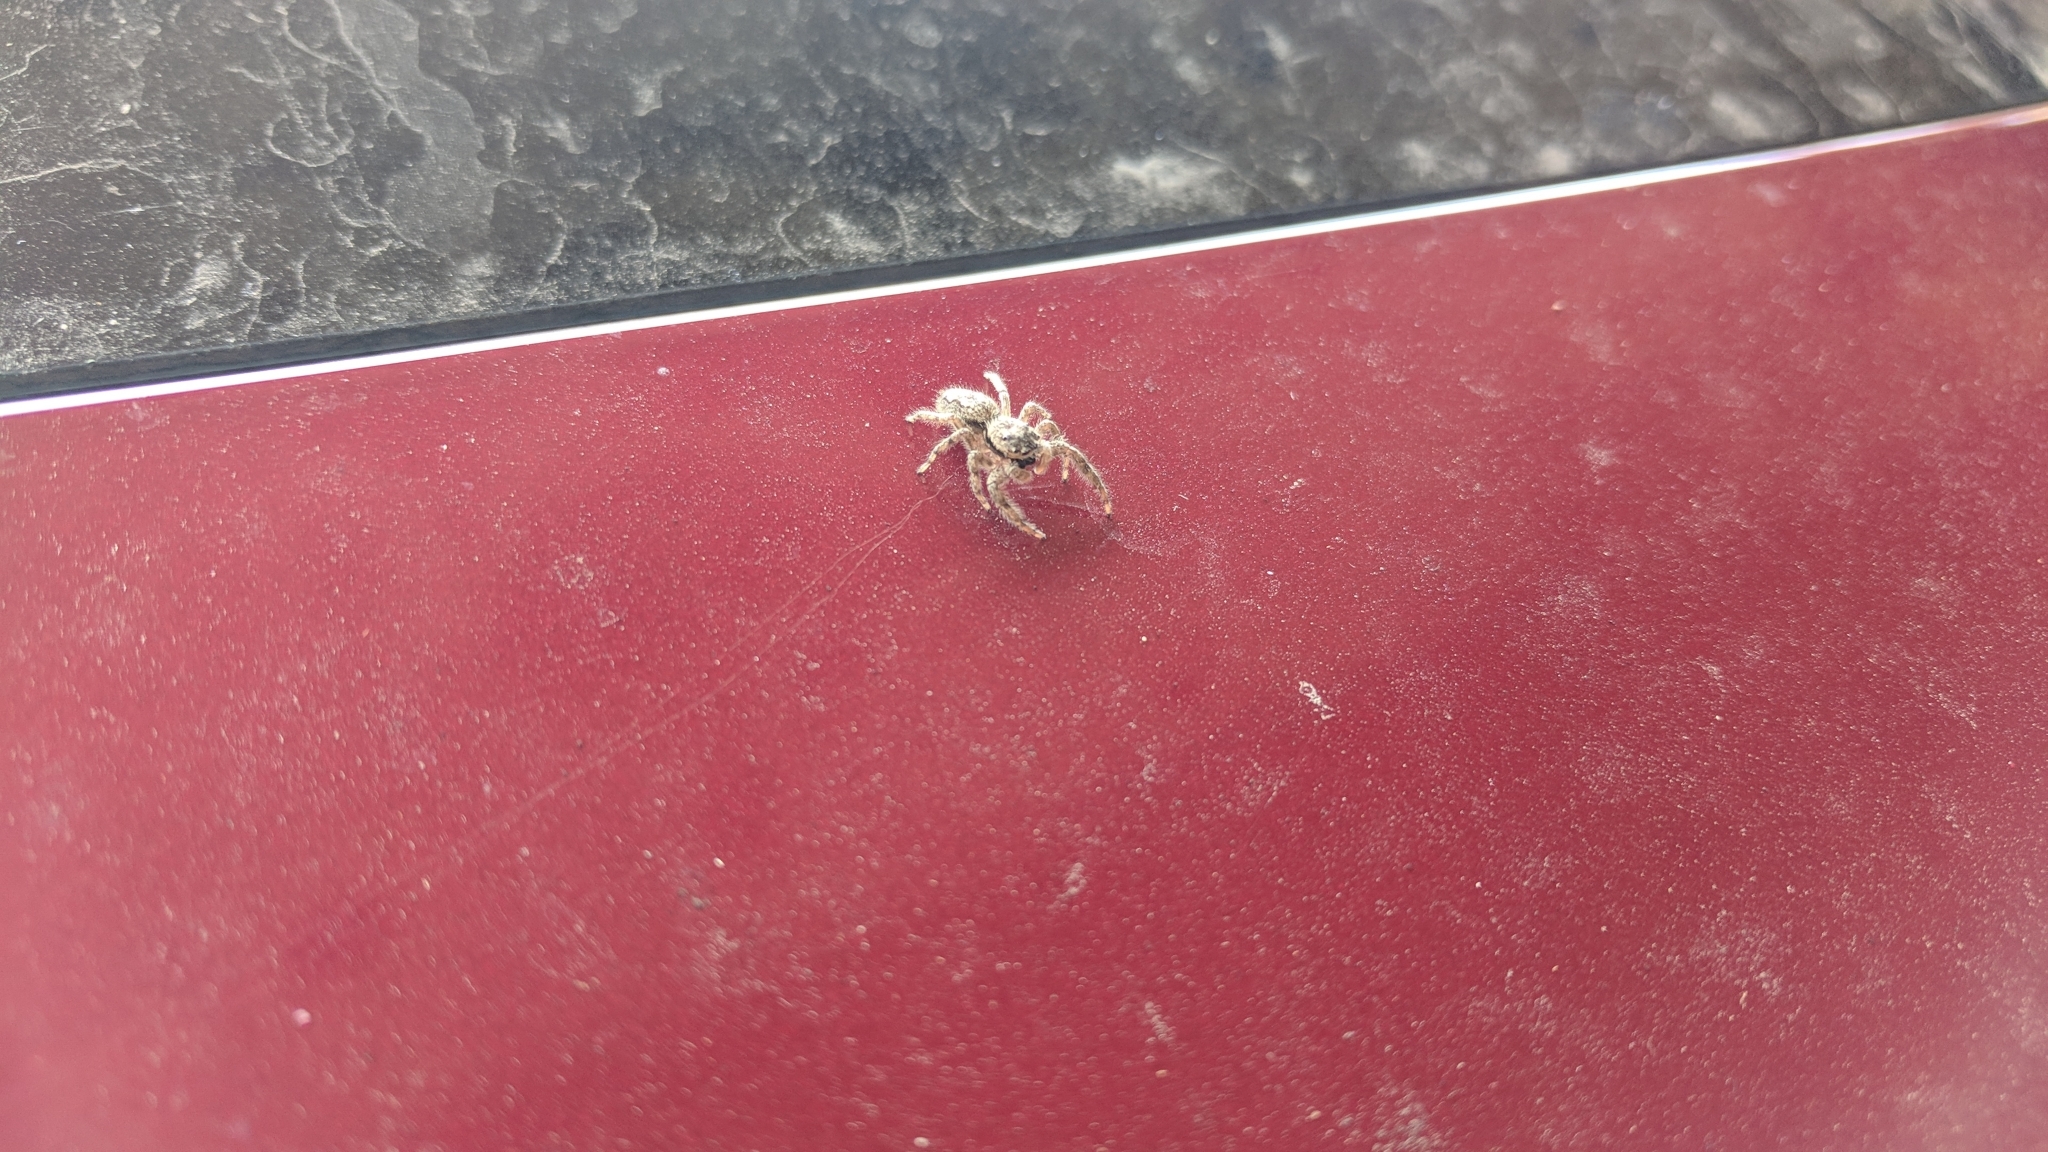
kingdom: Animalia
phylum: Arthropoda
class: Arachnida
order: Araneae
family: Salticidae
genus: Platycryptus
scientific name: Platycryptus undatus
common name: Tan jumping spider
